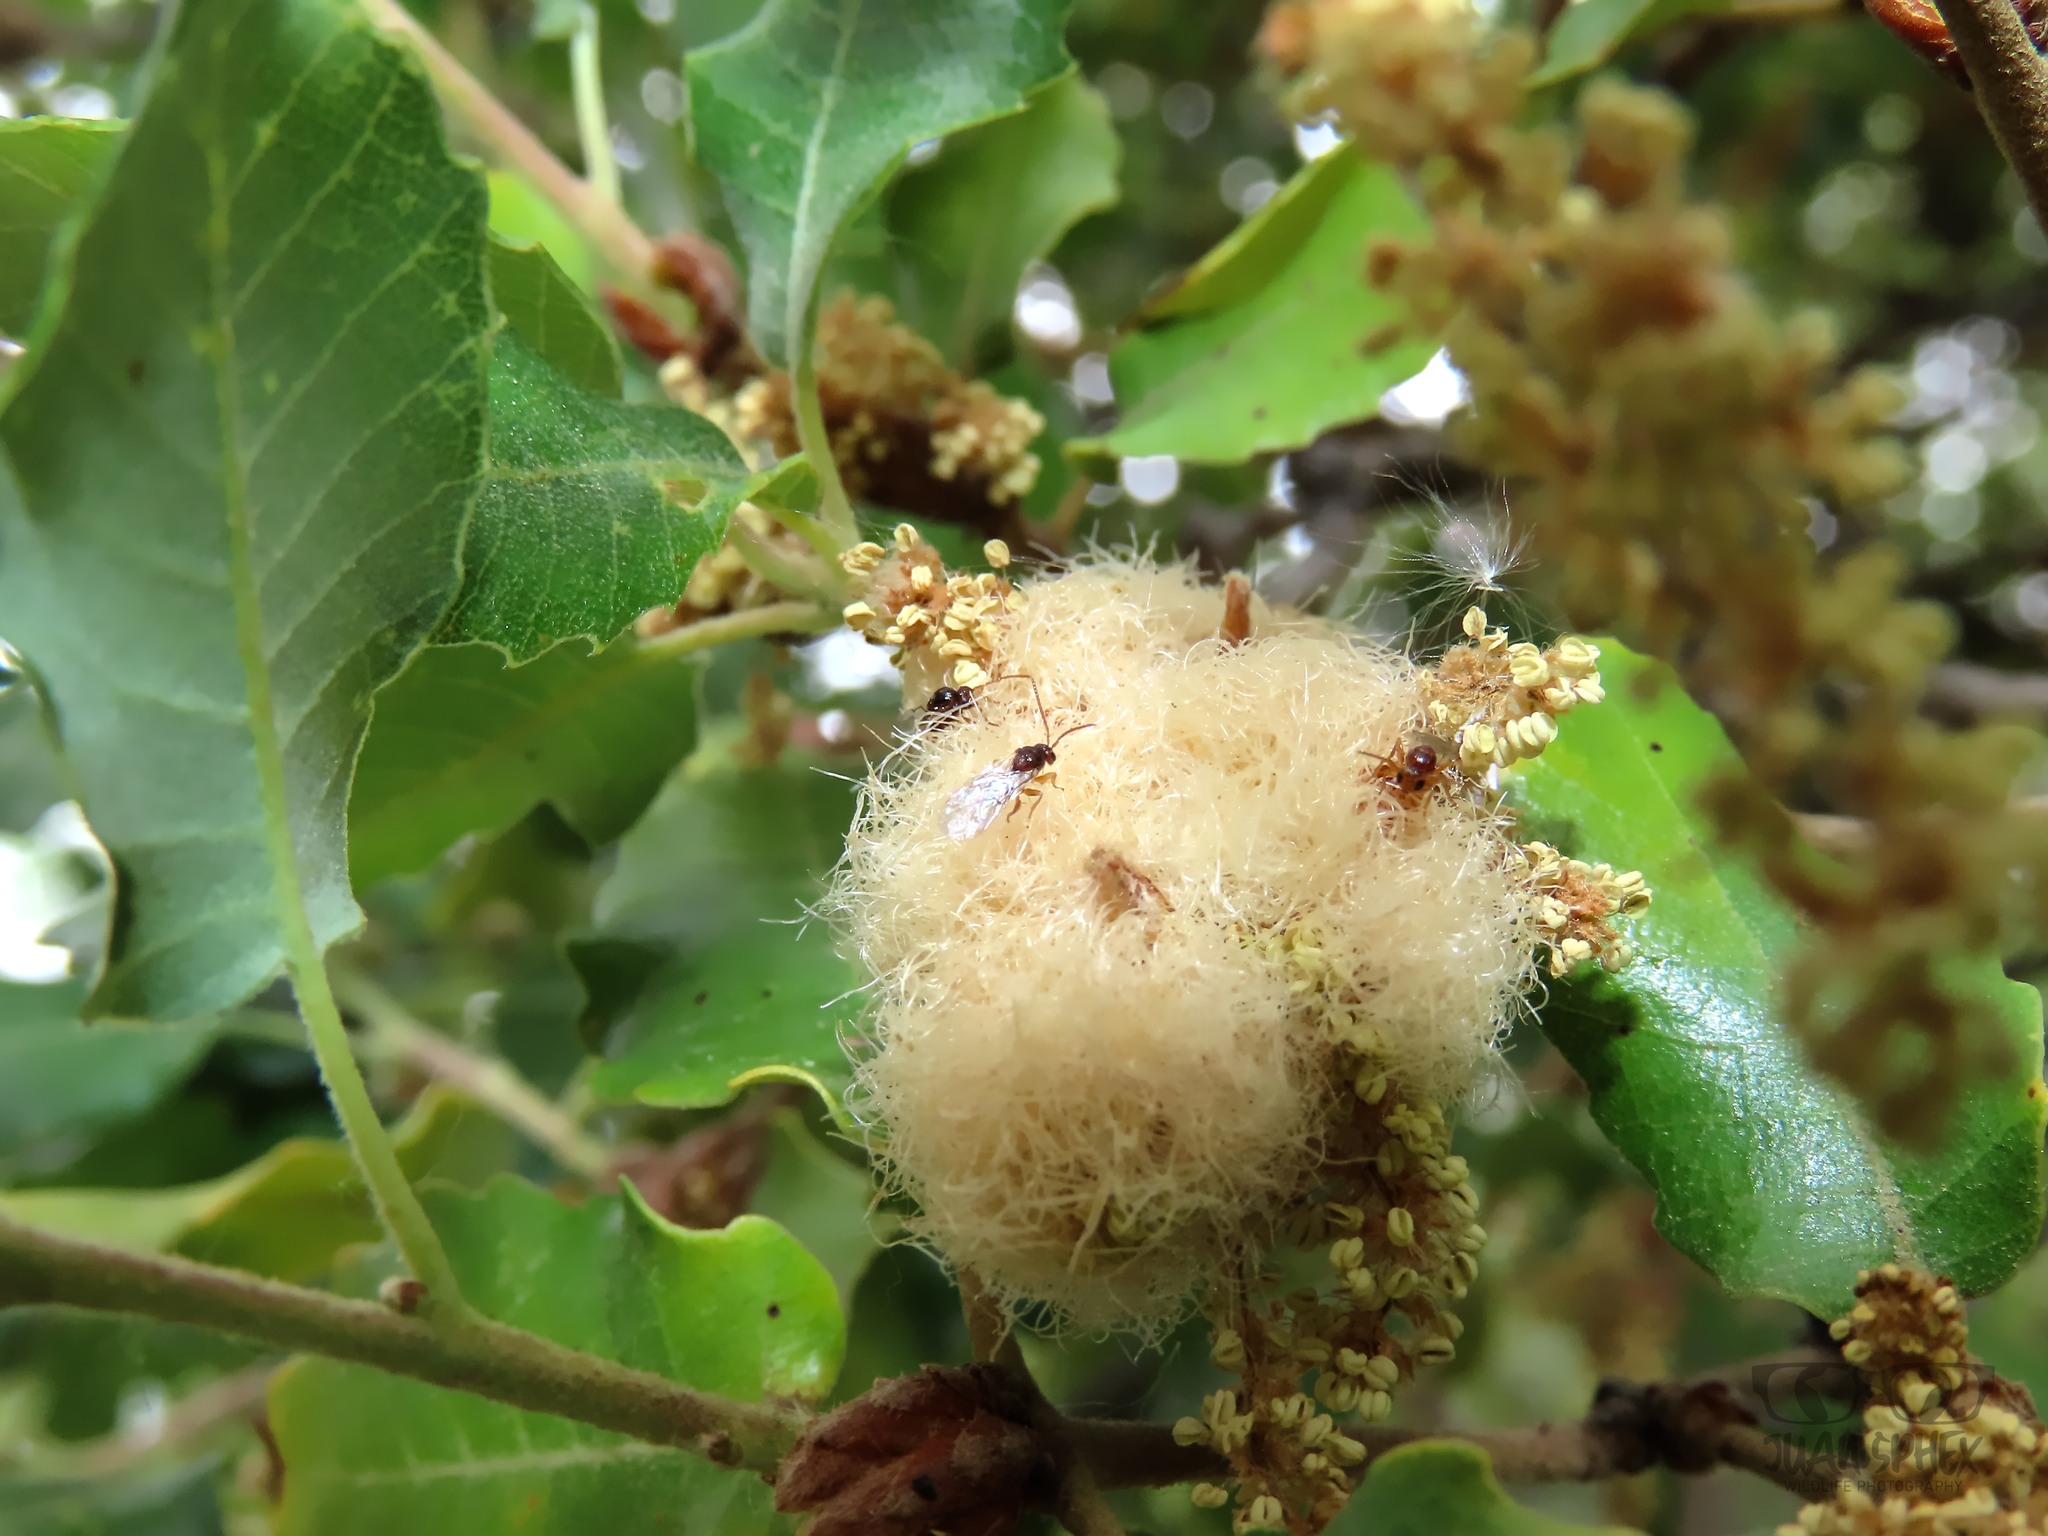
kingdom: Animalia
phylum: Arthropoda
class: Insecta
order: Hymenoptera
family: Cynipidae
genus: Andricus
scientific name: Andricus quercusramuli
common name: Cottonwool gall
